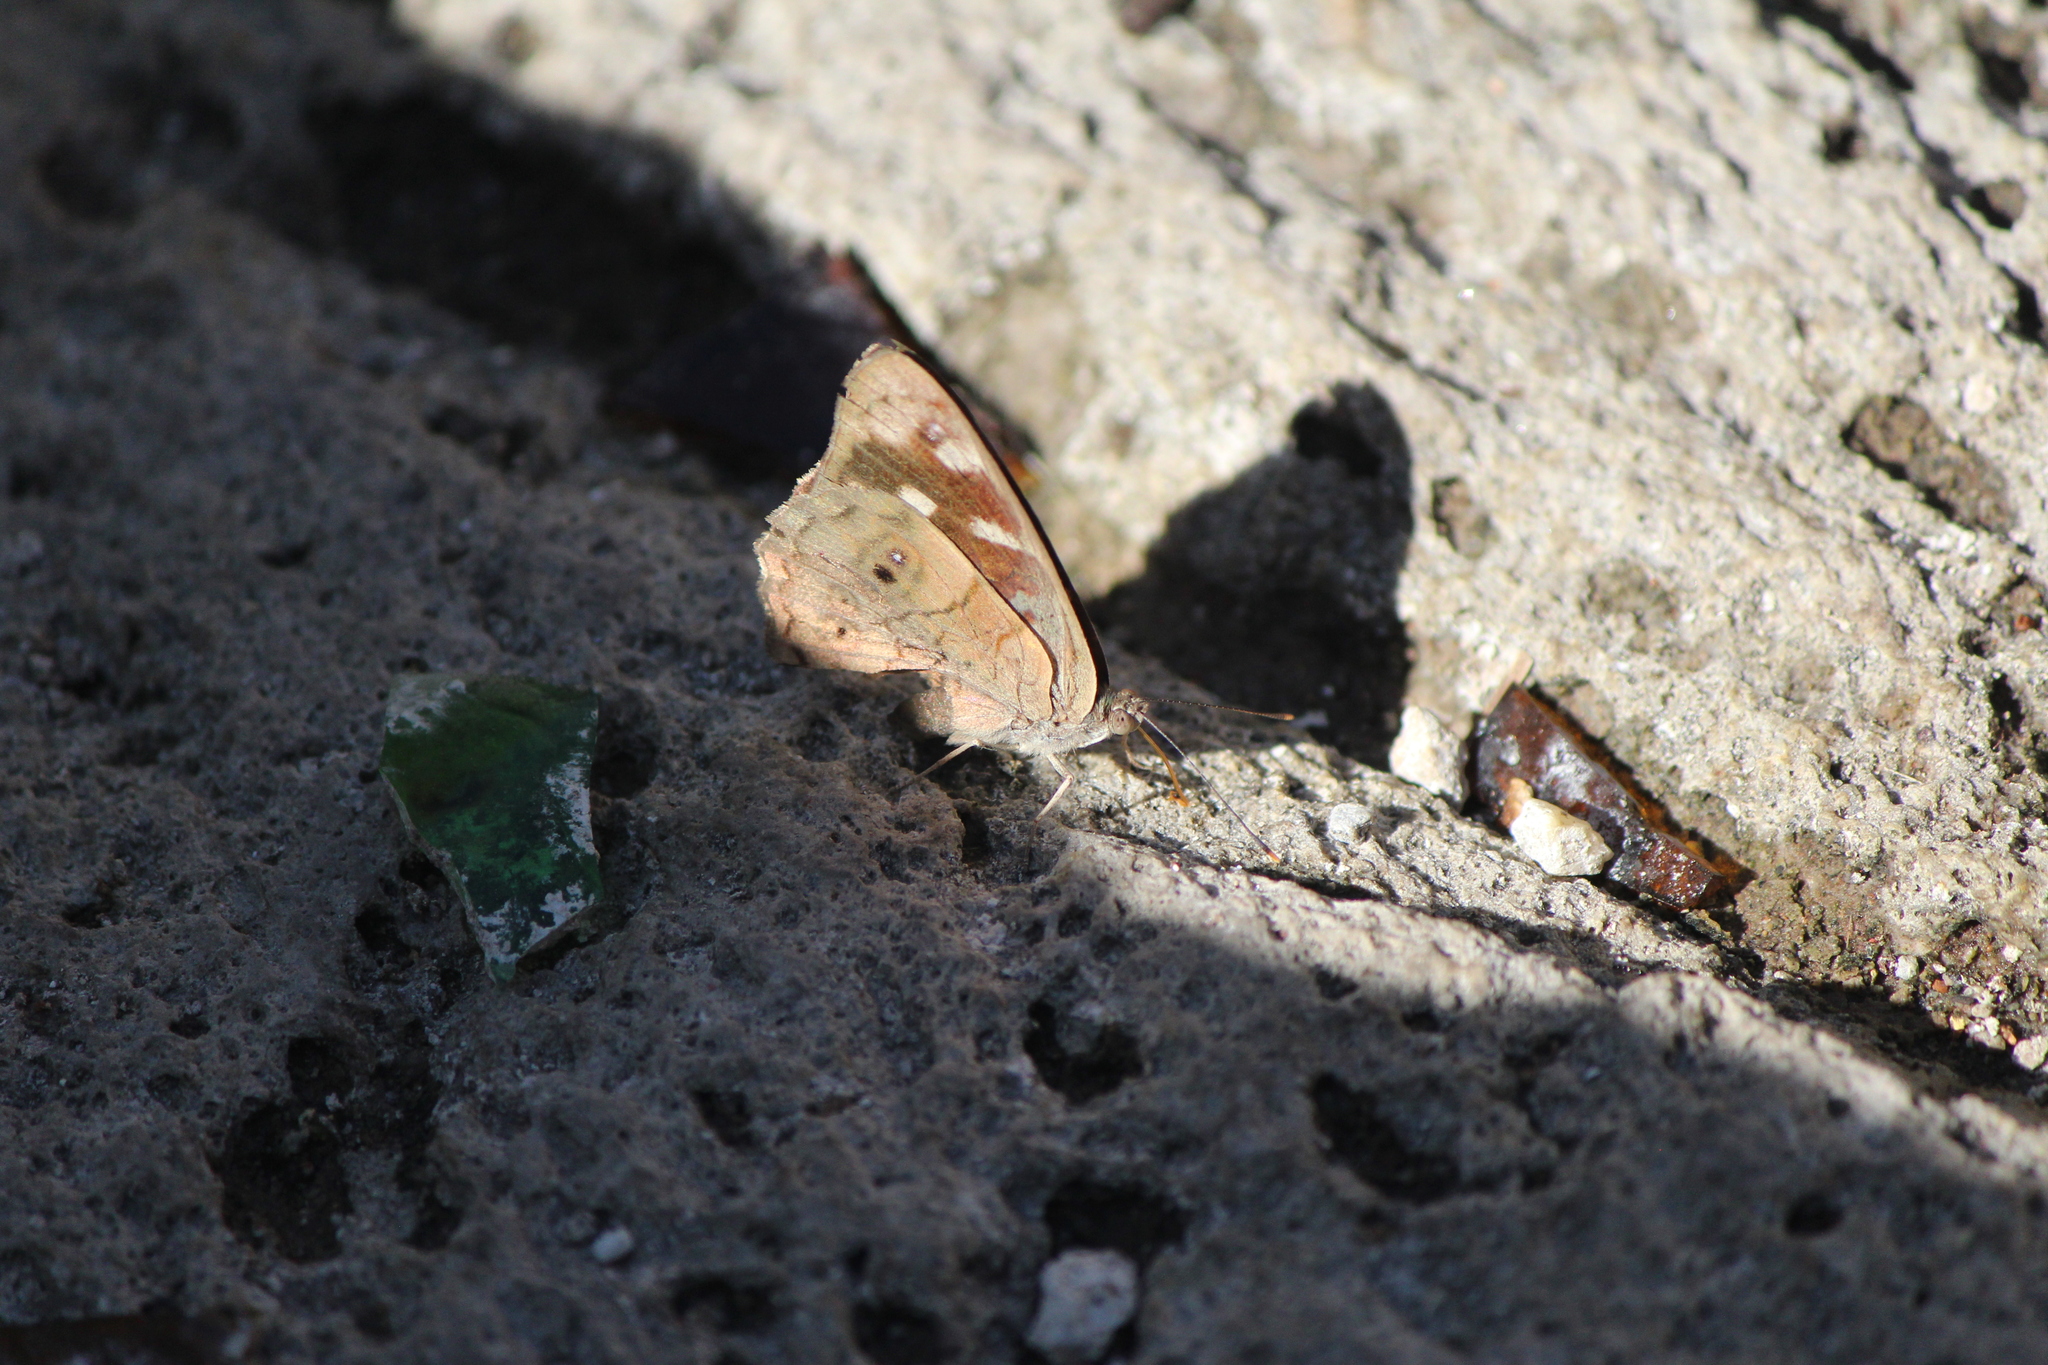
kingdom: Animalia
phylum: Arthropoda
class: Insecta
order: Lepidoptera
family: Nymphalidae
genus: Eunica
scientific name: Eunica monima
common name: Dingy purplewing
